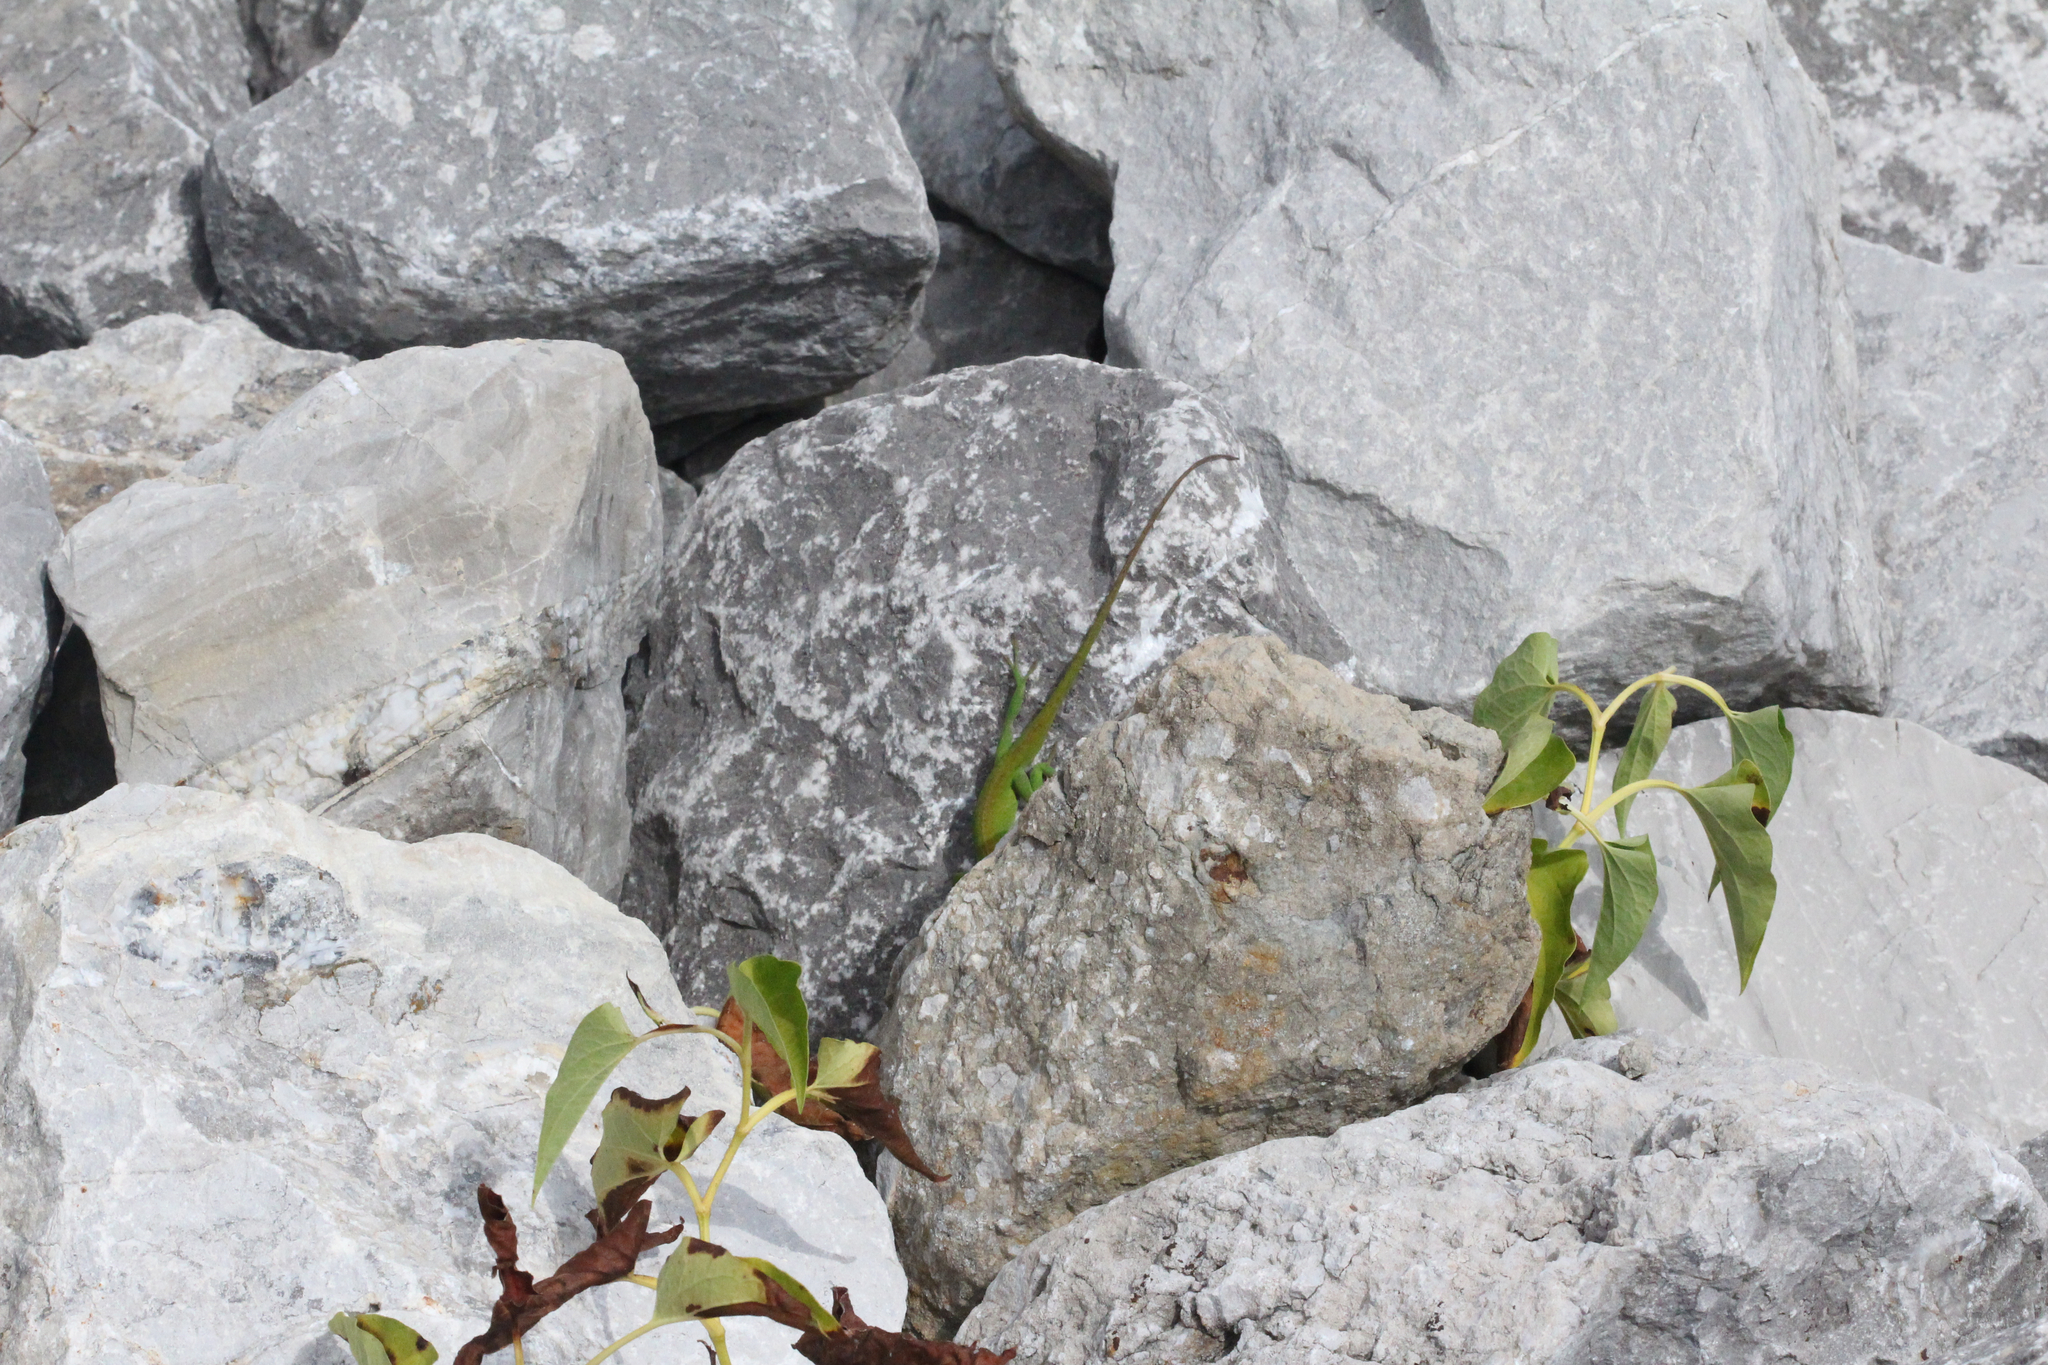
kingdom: Animalia
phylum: Chordata
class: Squamata
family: Dactyloidae
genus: Anolis
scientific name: Anolis carolinensis
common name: Green anole
